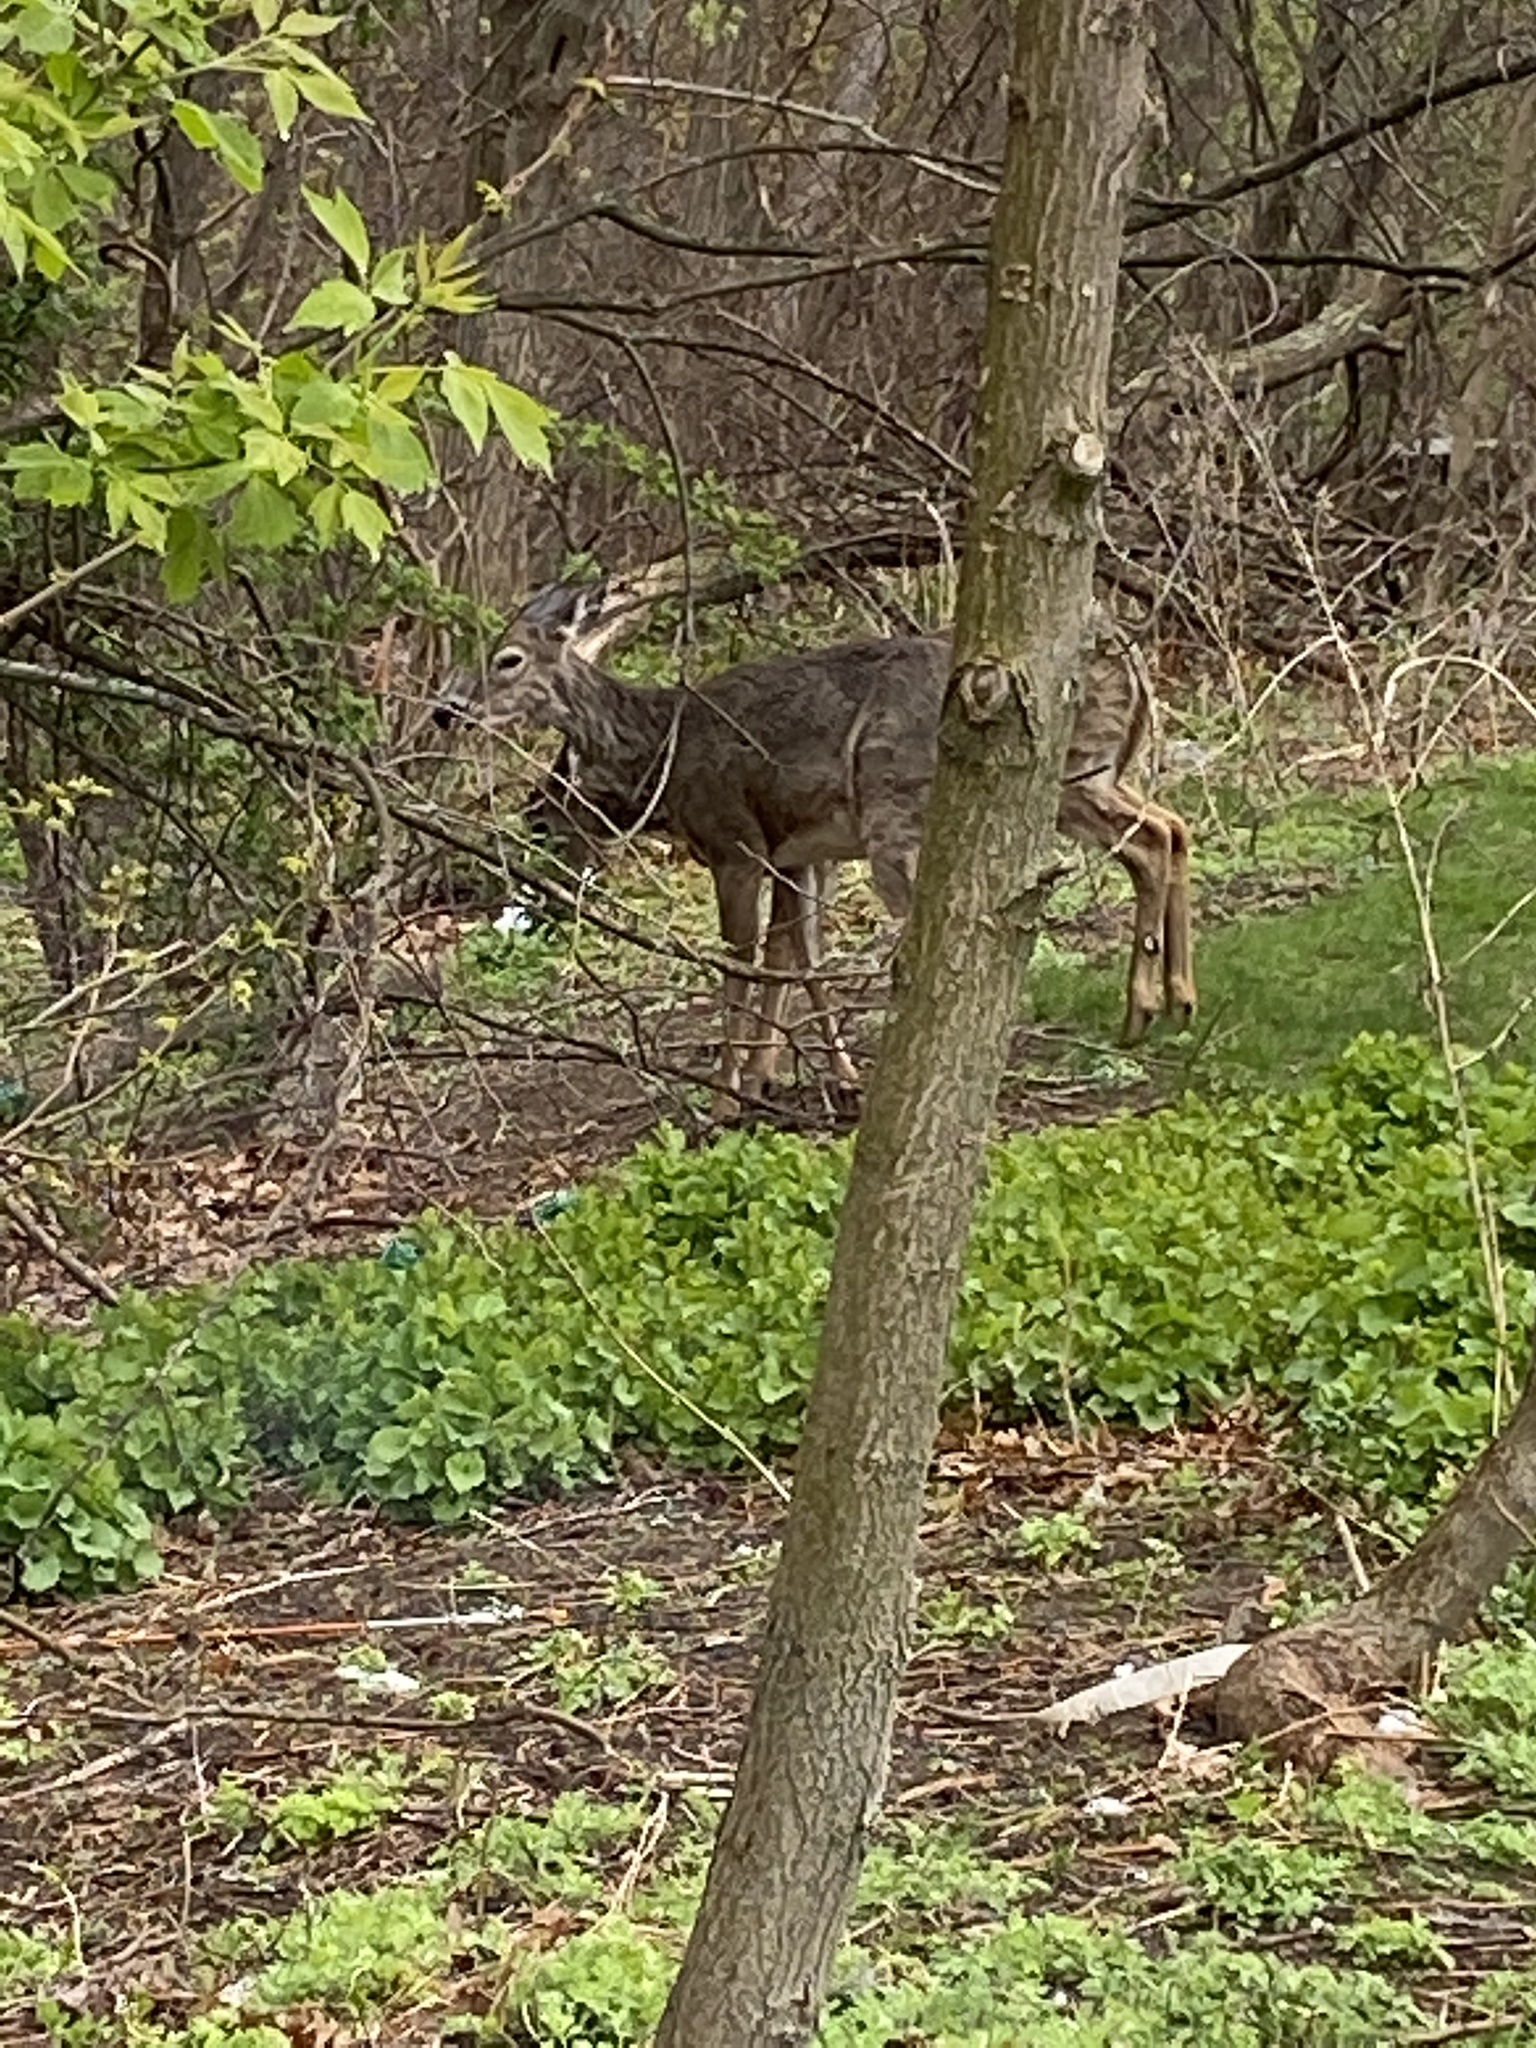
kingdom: Animalia
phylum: Chordata
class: Mammalia
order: Artiodactyla
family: Cervidae
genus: Odocoileus
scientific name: Odocoileus virginianus
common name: White-tailed deer
